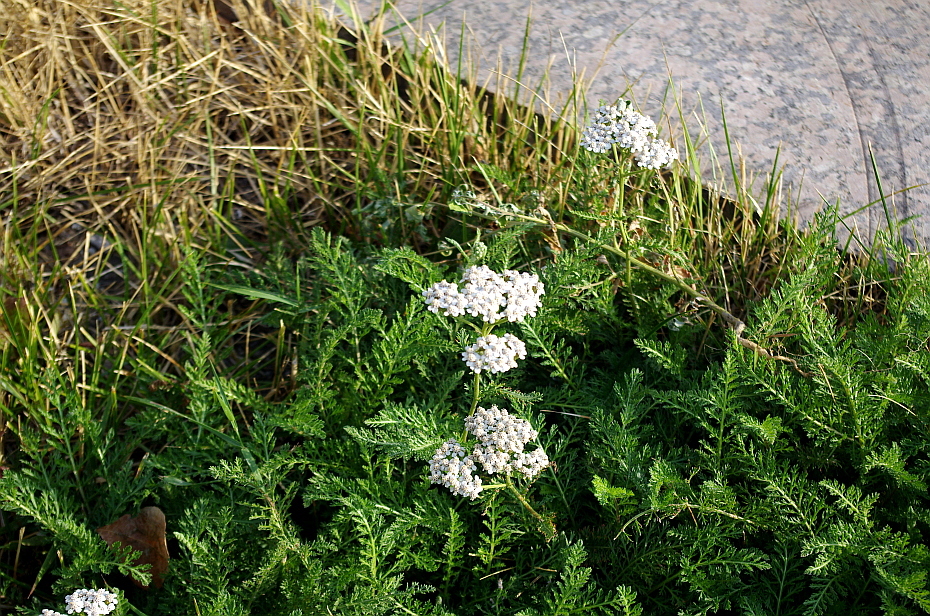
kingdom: Plantae
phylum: Tracheophyta
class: Magnoliopsida
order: Asterales
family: Asteraceae
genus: Achillea
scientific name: Achillea millefolium
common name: Yarrow
